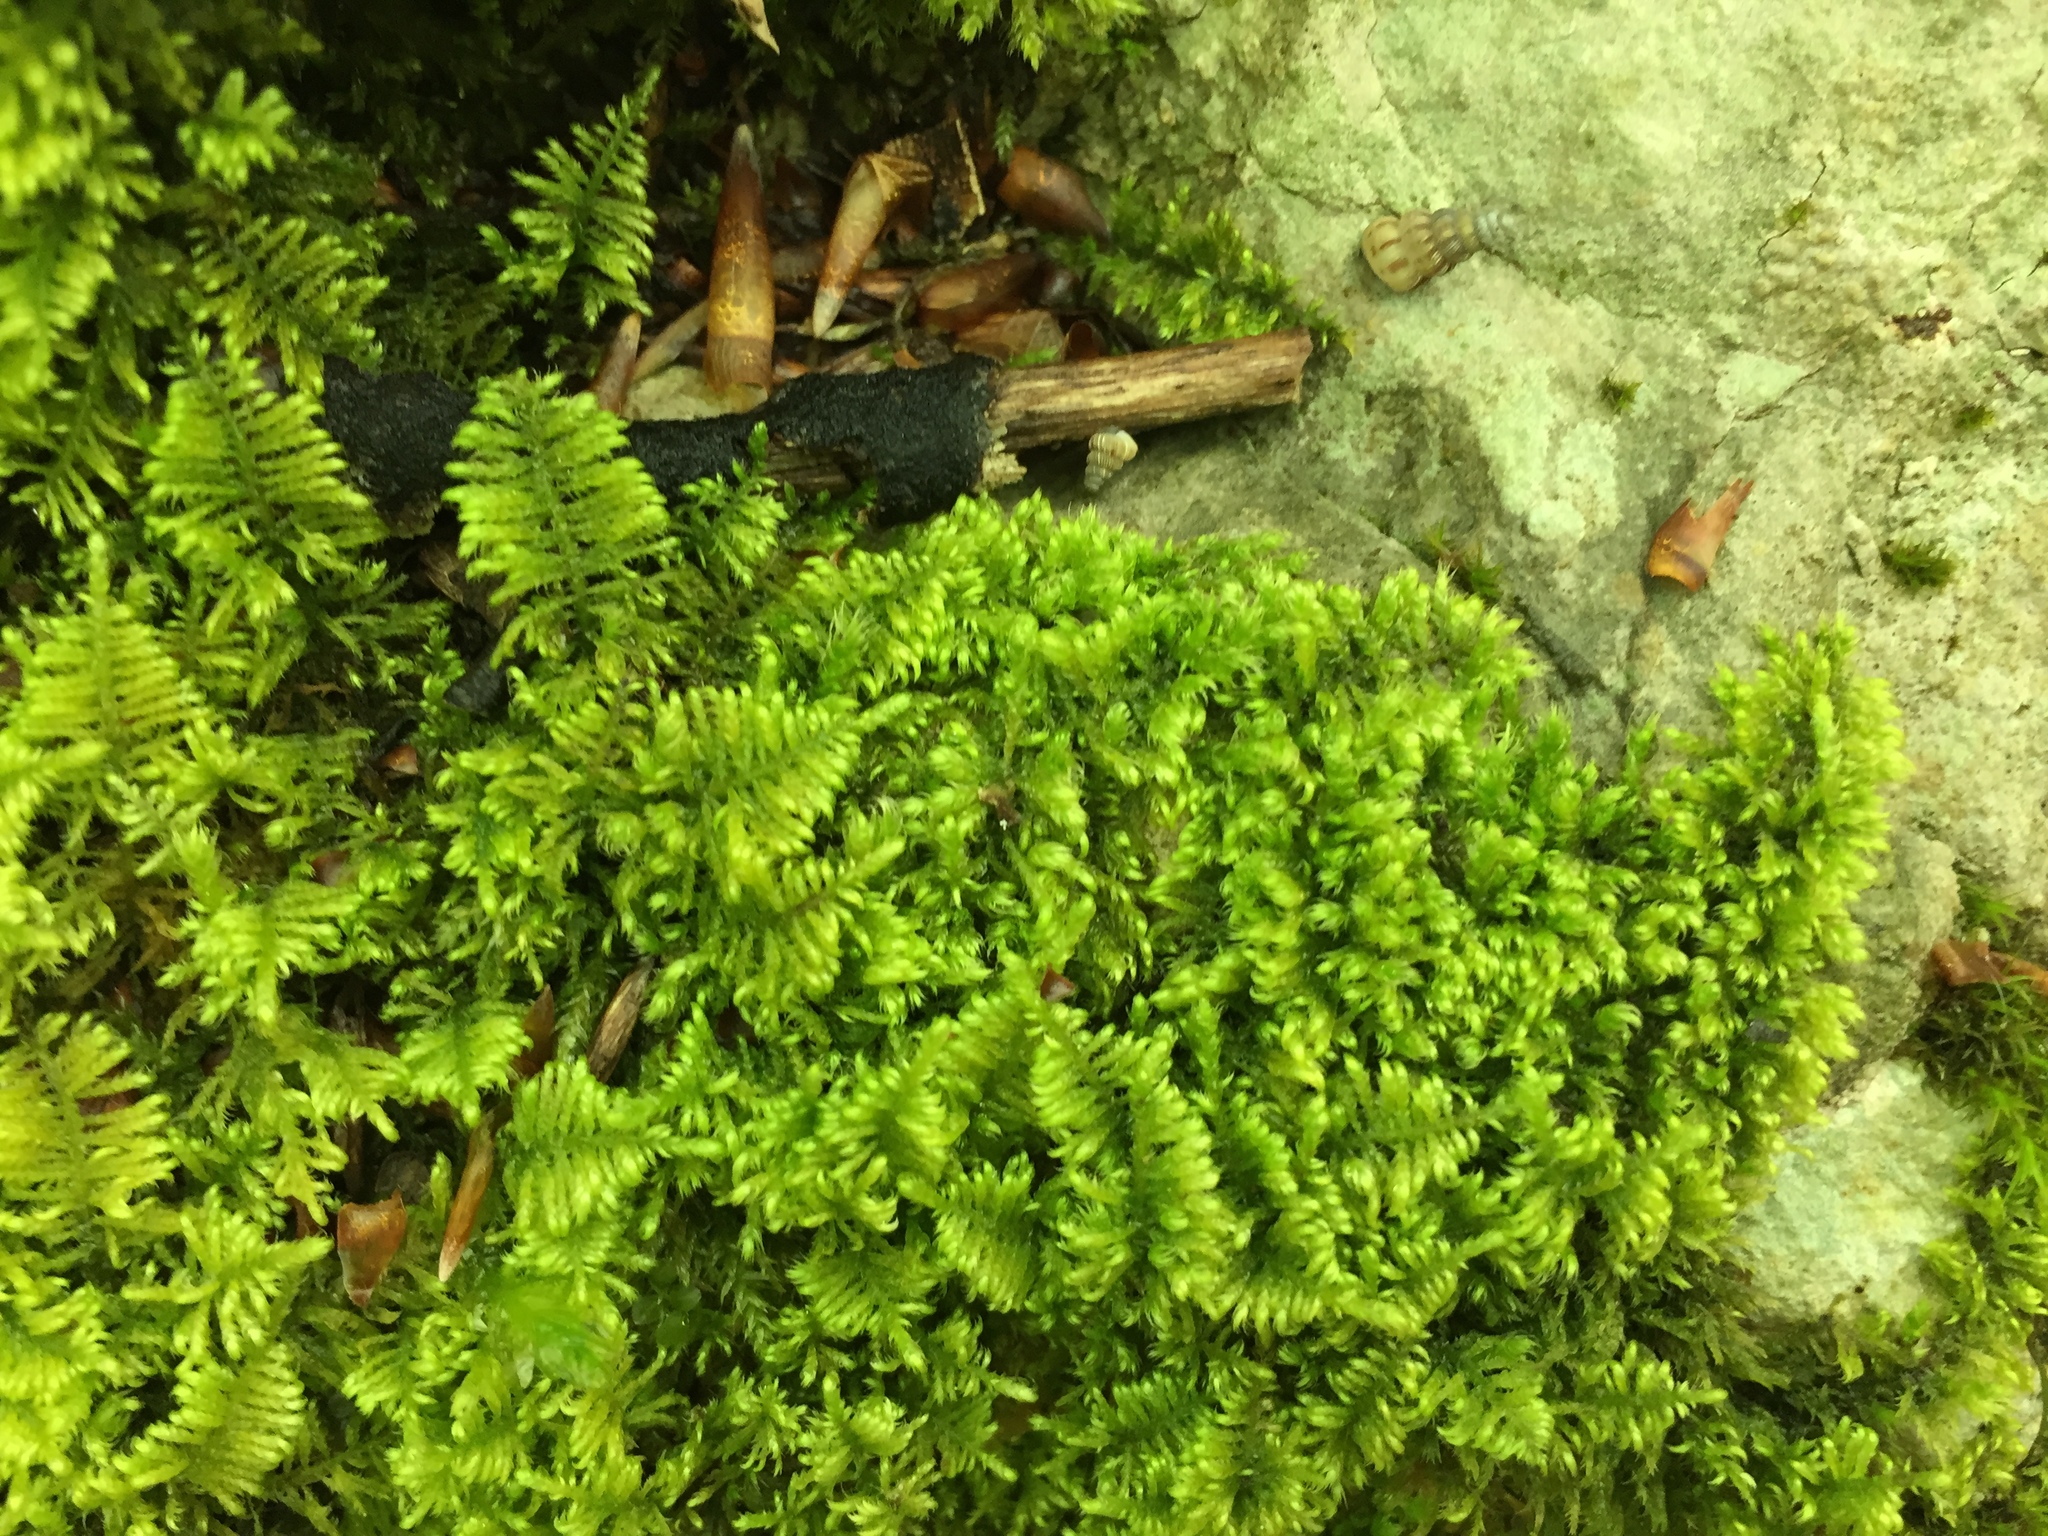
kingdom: Plantae
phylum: Bryophyta
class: Bryopsida
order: Hypnales
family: Myuriaceae
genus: Ctenidium
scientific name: Ctenidium molluscum
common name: Chalk comb-moss
